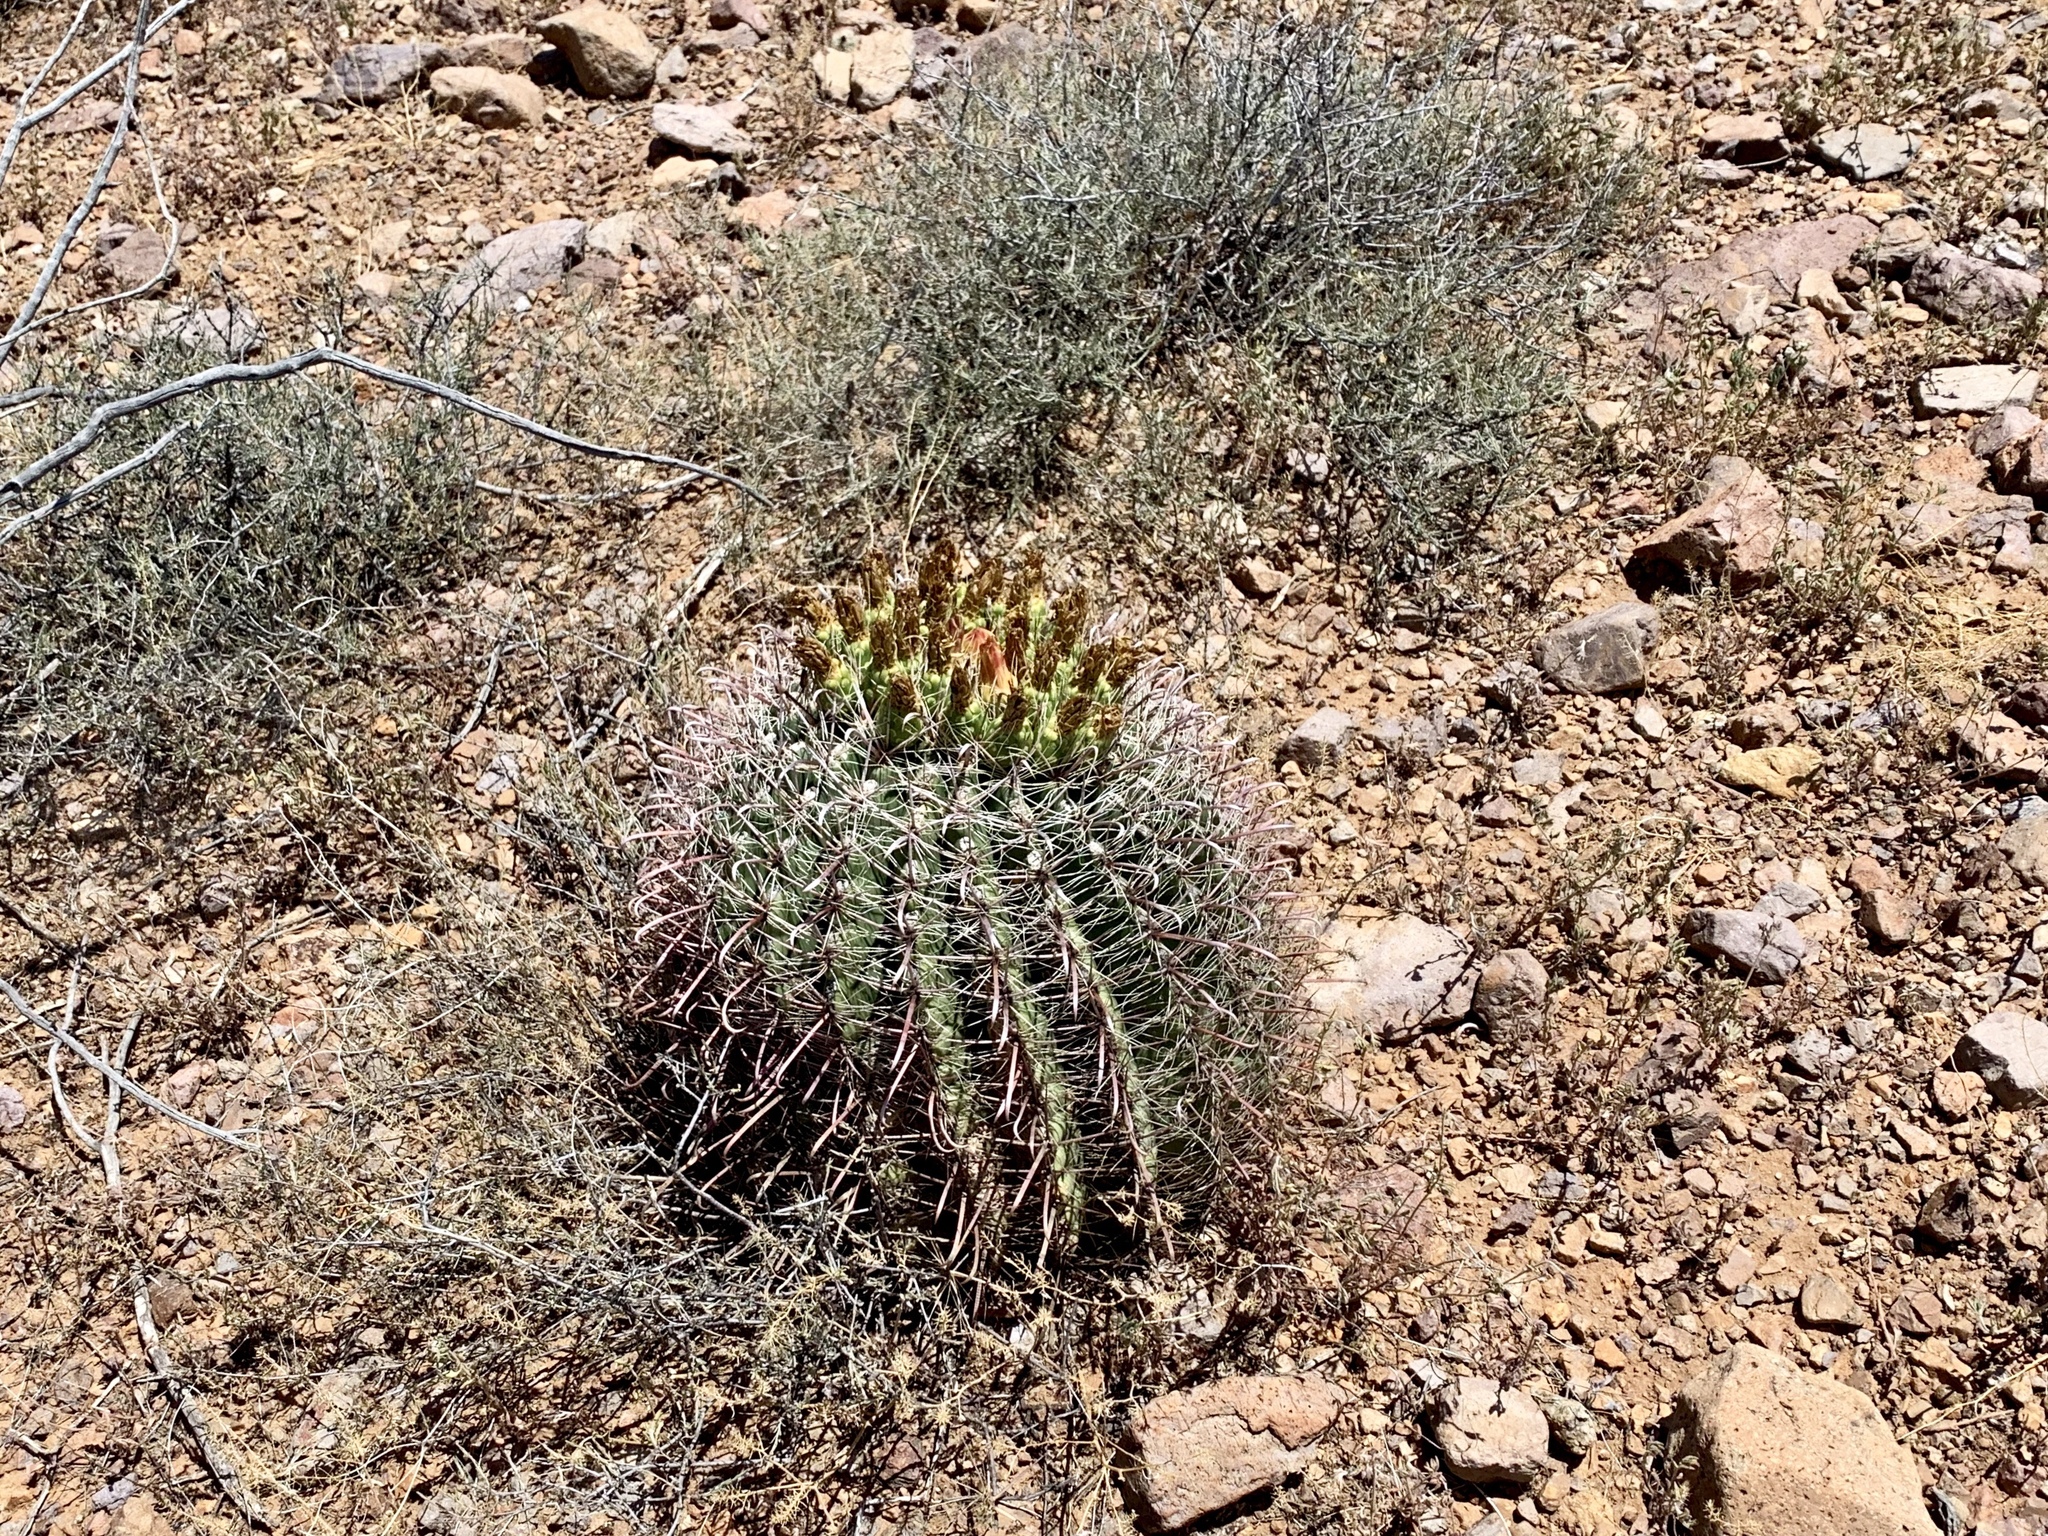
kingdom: Plantae
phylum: Tracheophyta
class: Magnoliopsida
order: Caryophyllales
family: Cactaceae
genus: Ferocactus
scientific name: Ferocactus wislizeni
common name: Candy barrel cactus
